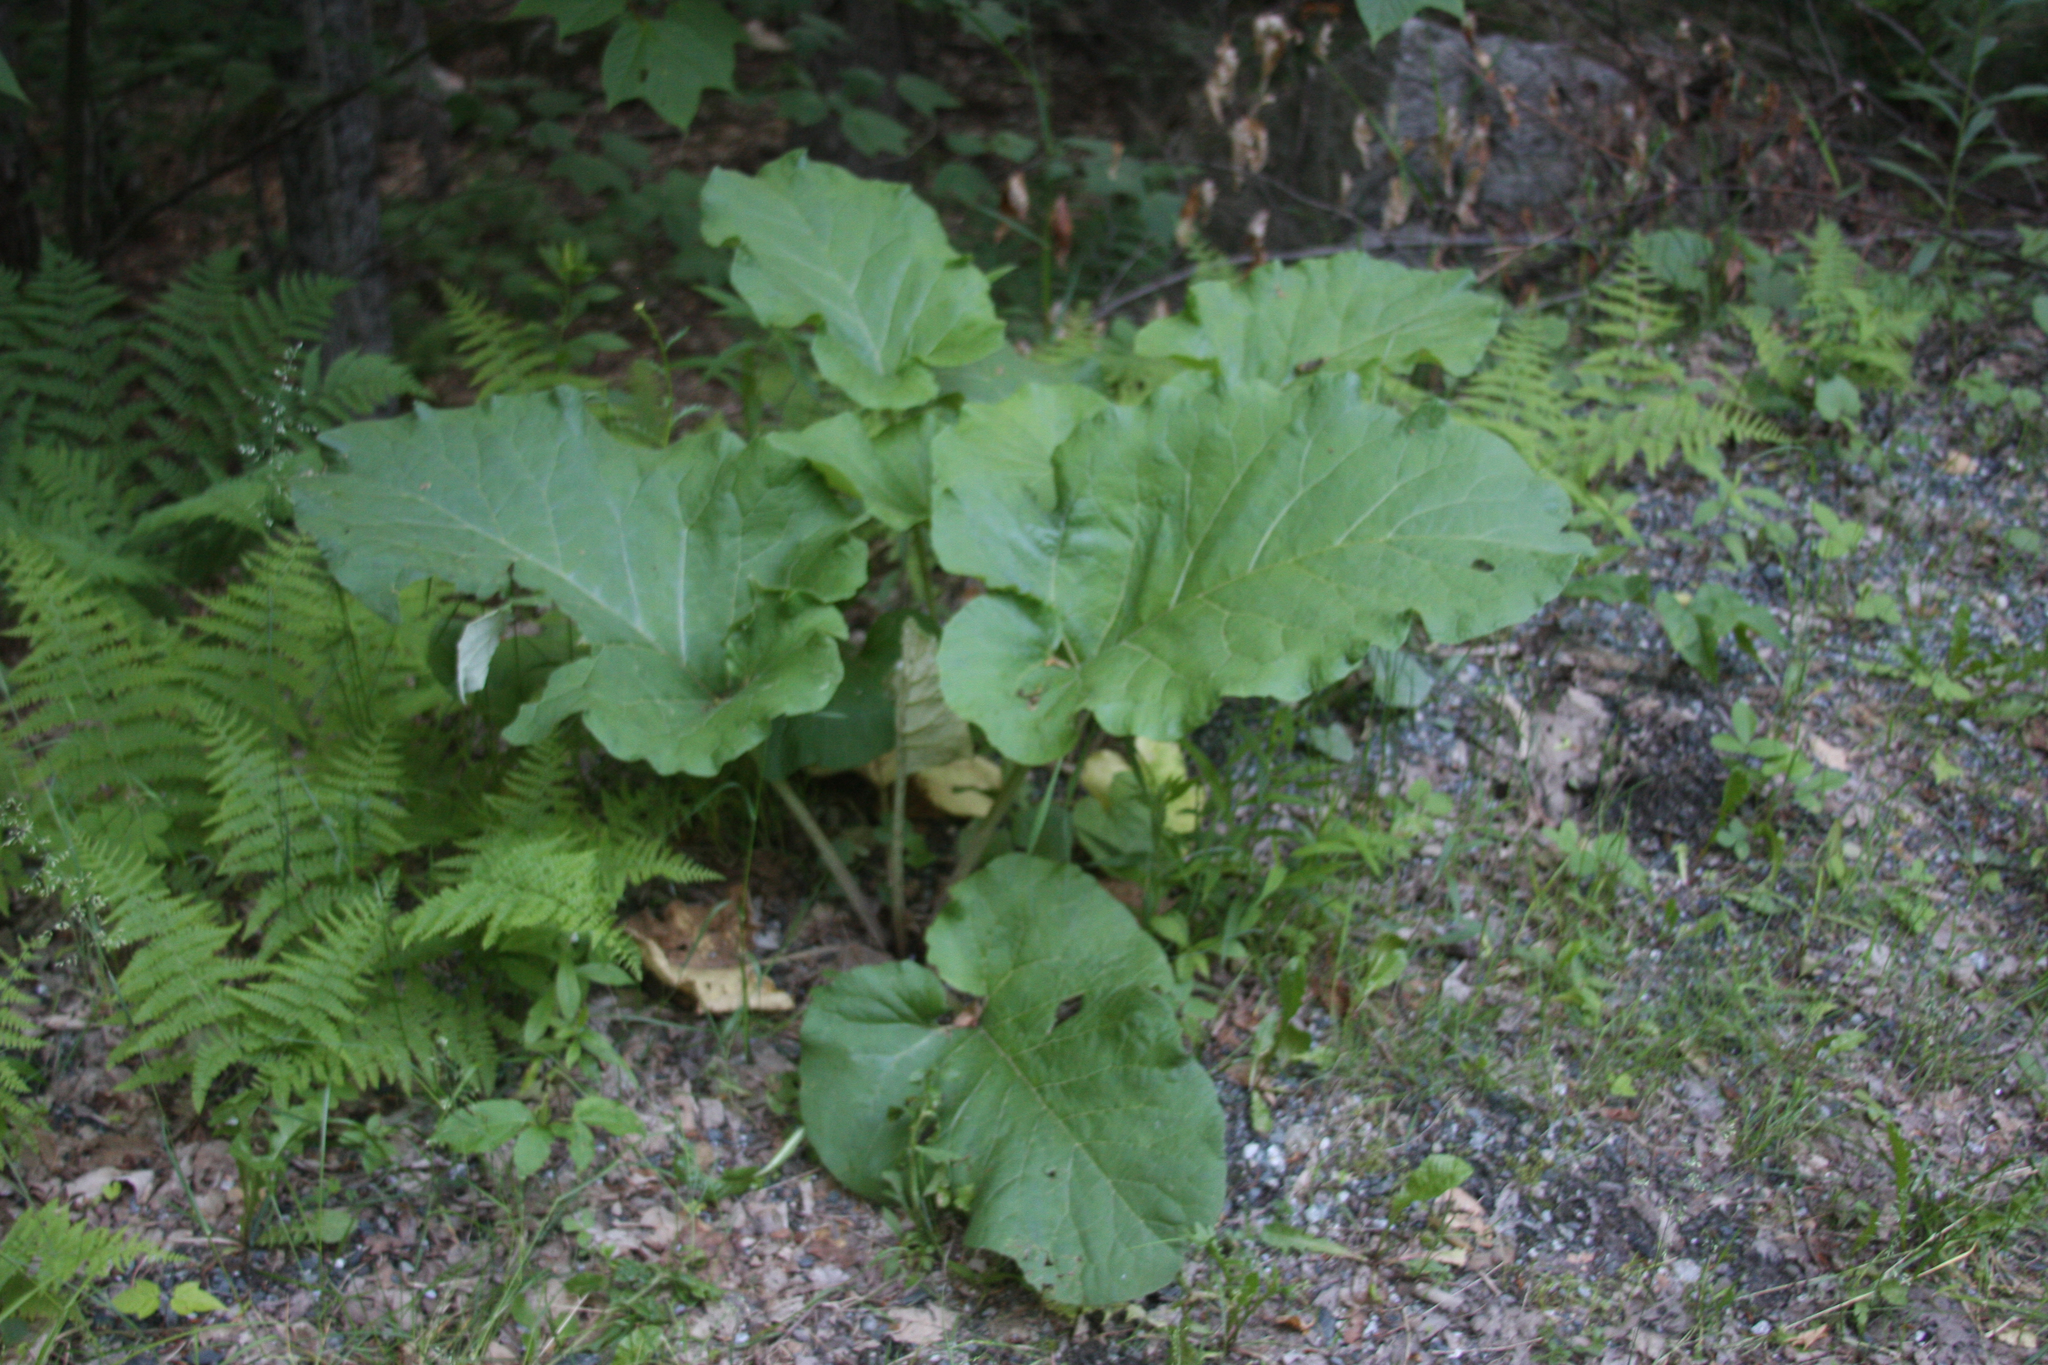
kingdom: Plantae
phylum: Tracheophyta
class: Magnoliopsida
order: Asterales
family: Asteraceae
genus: Arctium
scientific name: Arctium
